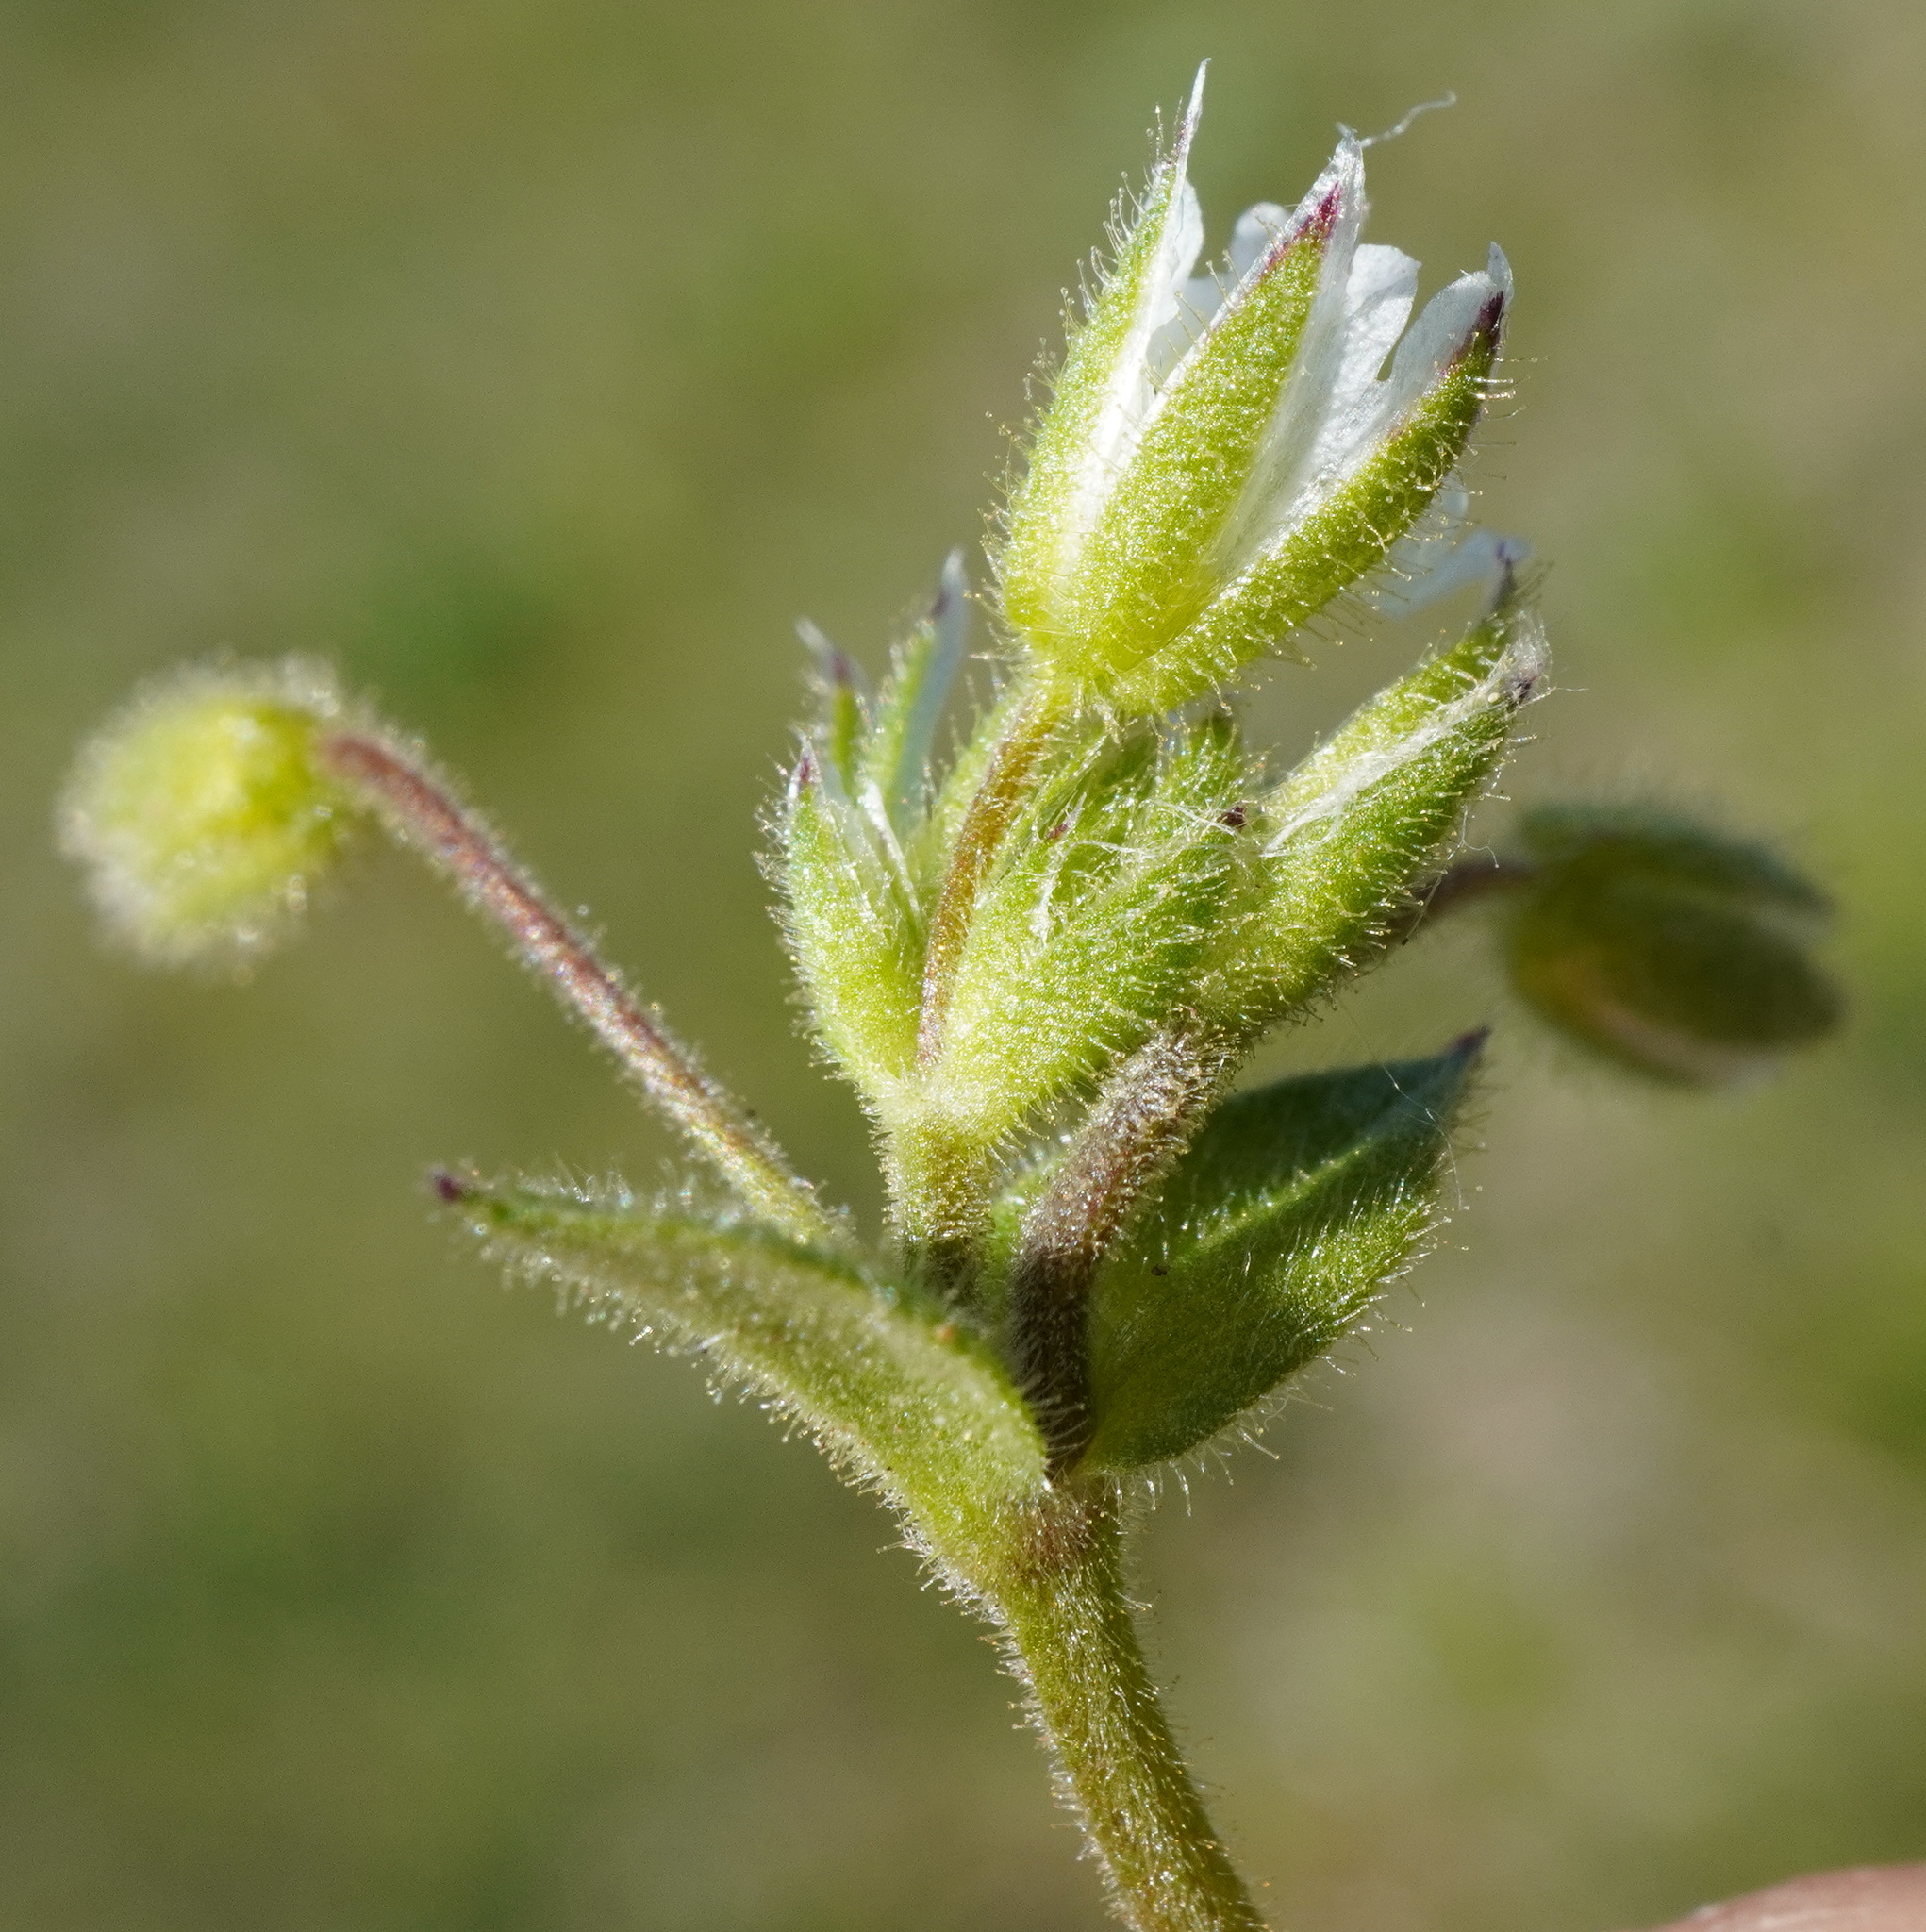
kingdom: Plantae
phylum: Tracheophyta
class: Magnoliopsida
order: Caryophyllales
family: Caryophyllaceae
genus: Cerastium
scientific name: Cerastium glutinosum
